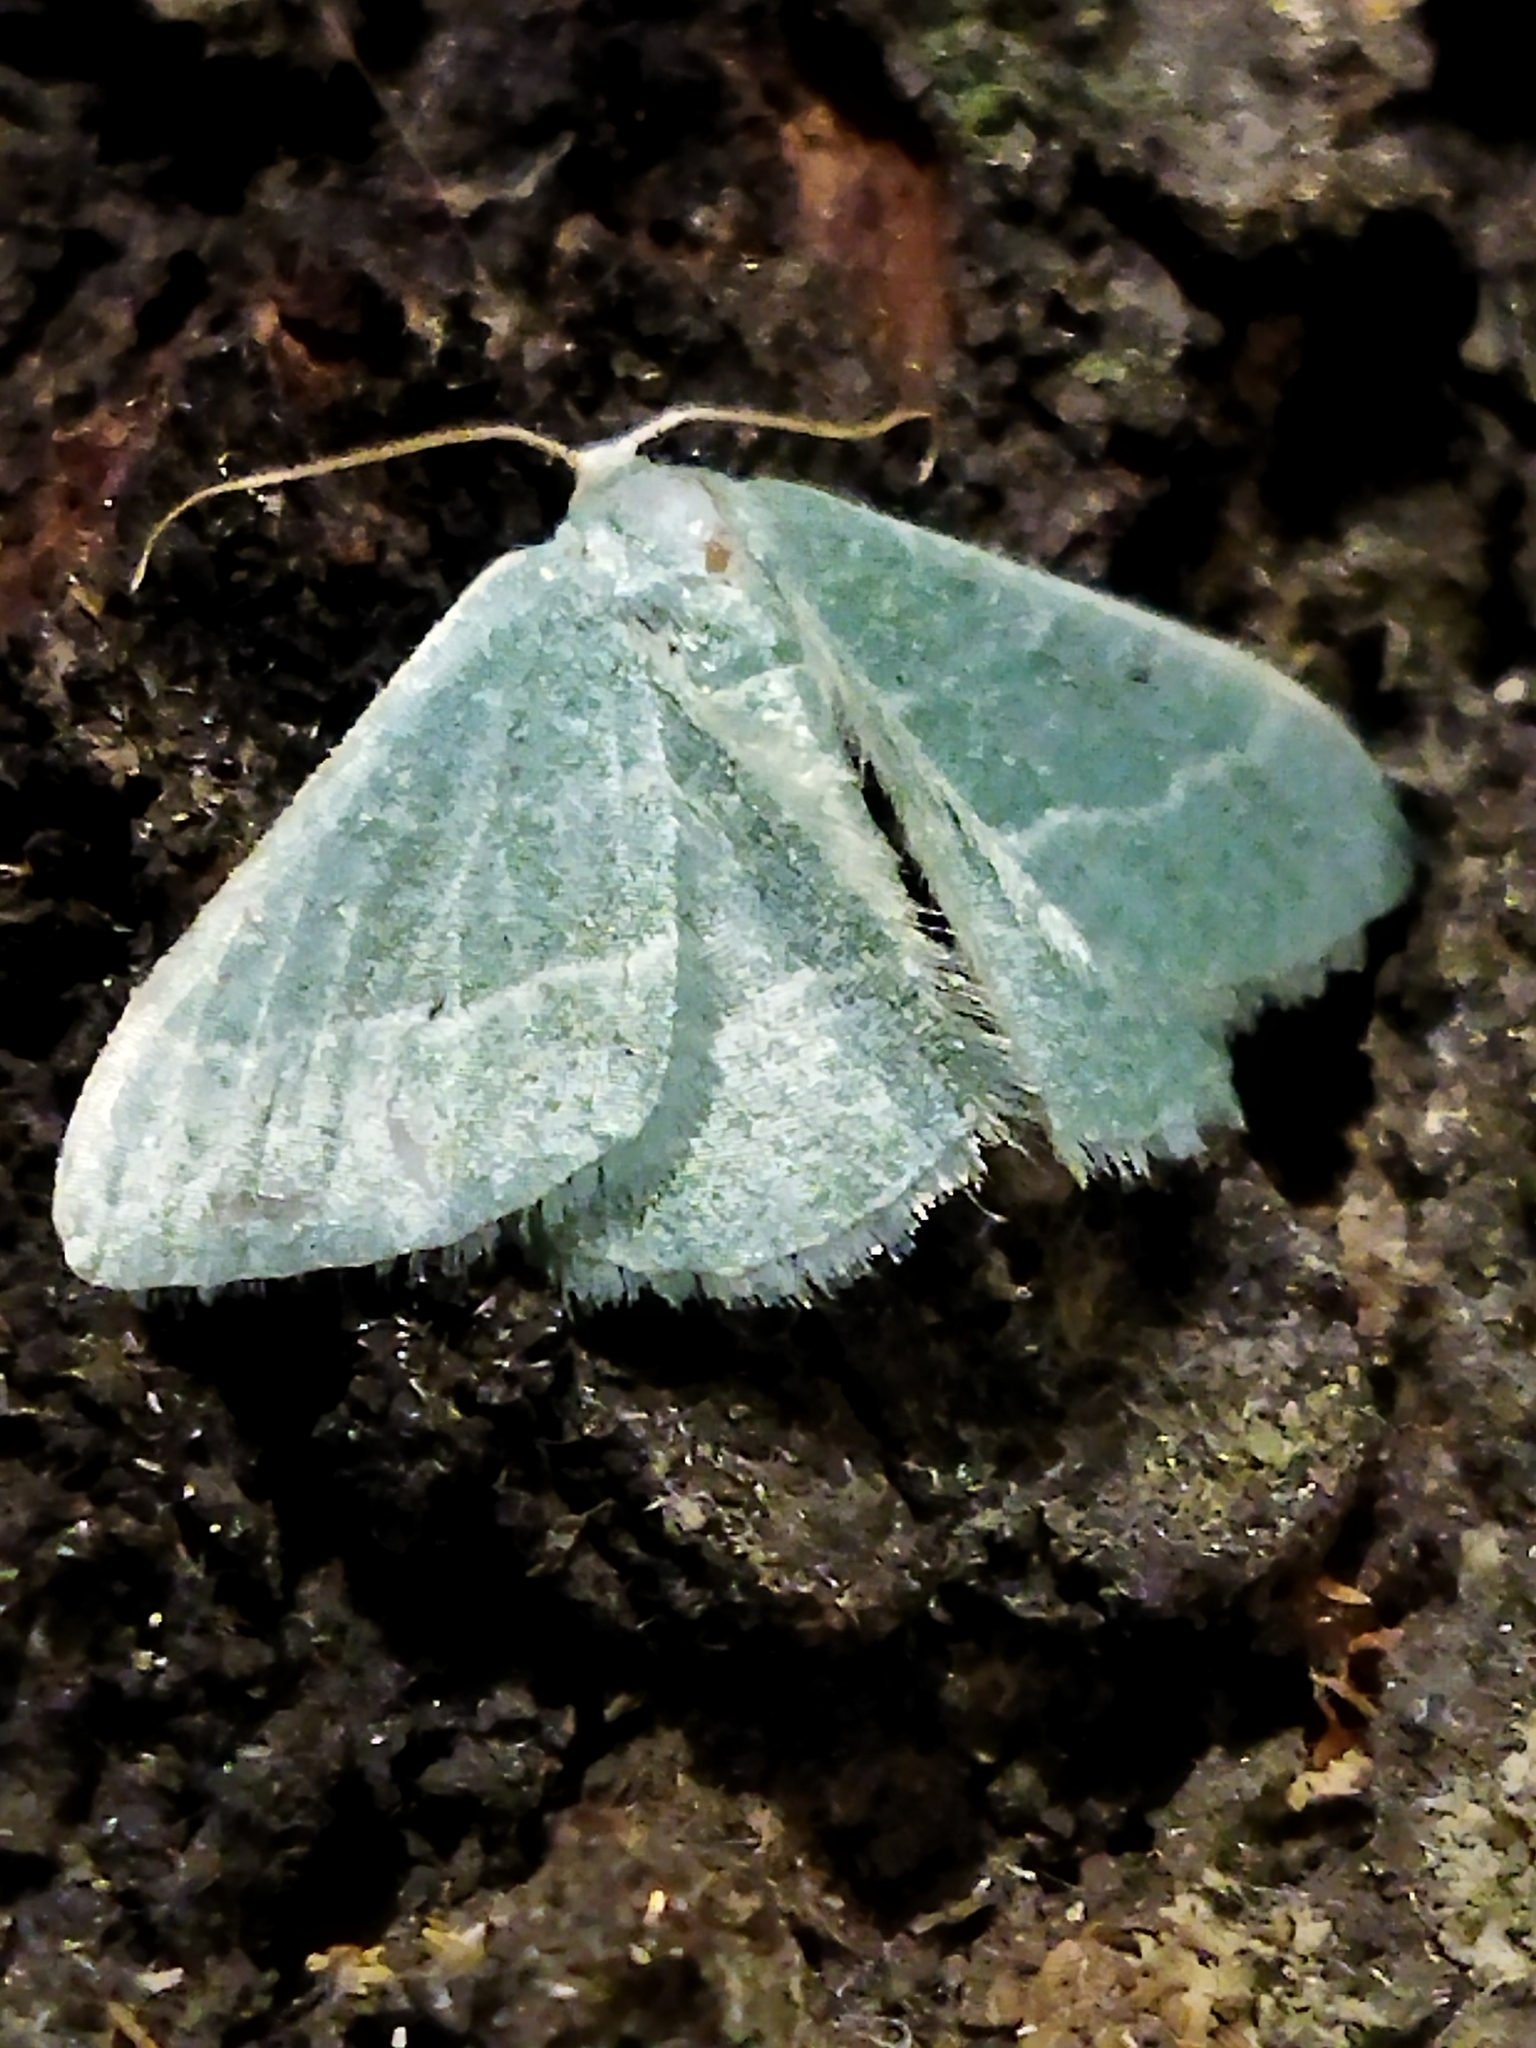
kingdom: Animalia
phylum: Arthropoda
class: Insecta
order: Lepidoptera
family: Geometridae
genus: Chlorissa
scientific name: Chlorissa
